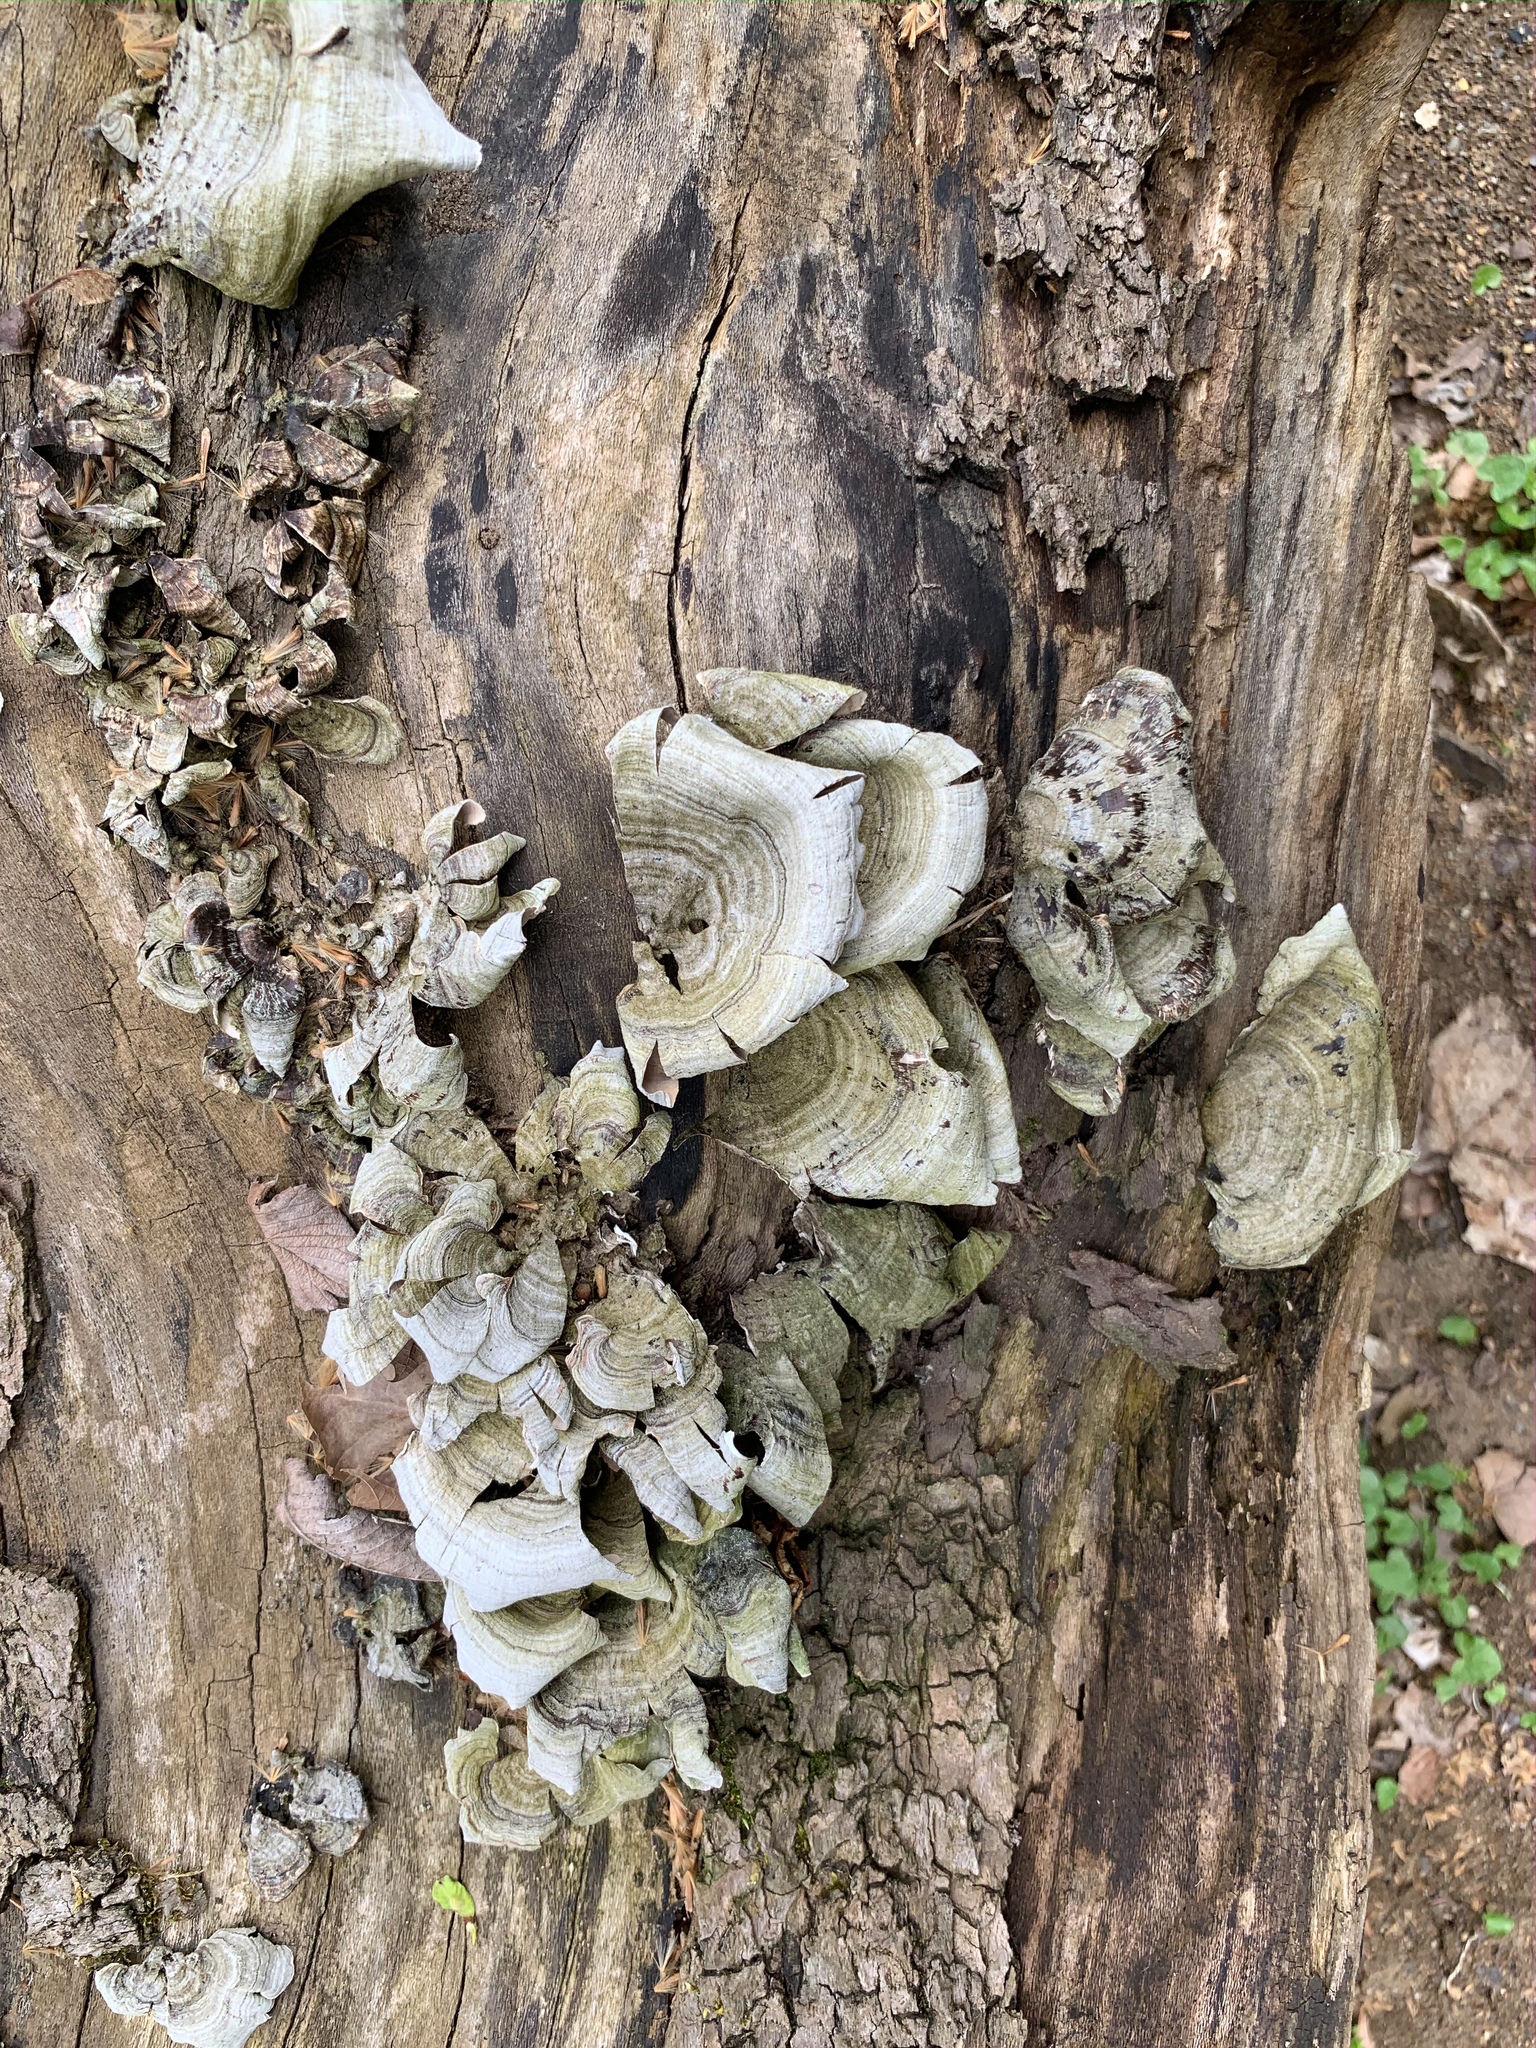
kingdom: Fungi
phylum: Basidiomycota
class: Agaricomycetes
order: Russulales
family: Stereaceae
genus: Stereum
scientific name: Stereum ostrea
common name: False turkeytail
